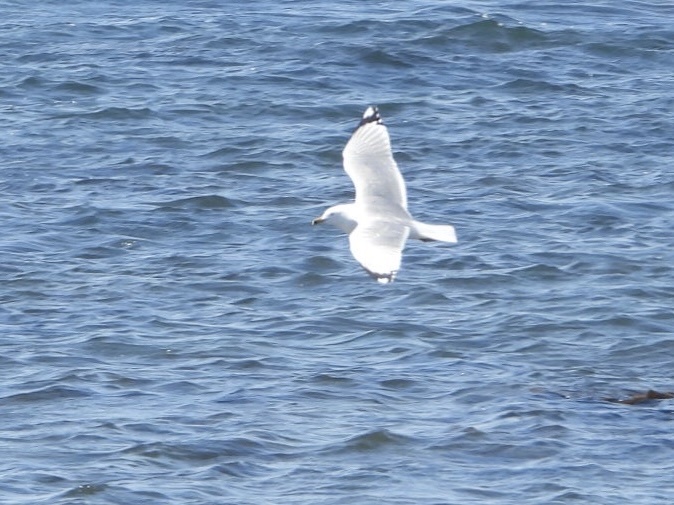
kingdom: Animalia
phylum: Chordata
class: Aves
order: Charadriiformes
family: Laridae
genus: Larus
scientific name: Larus delawarensis
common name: Ring-billed gull
